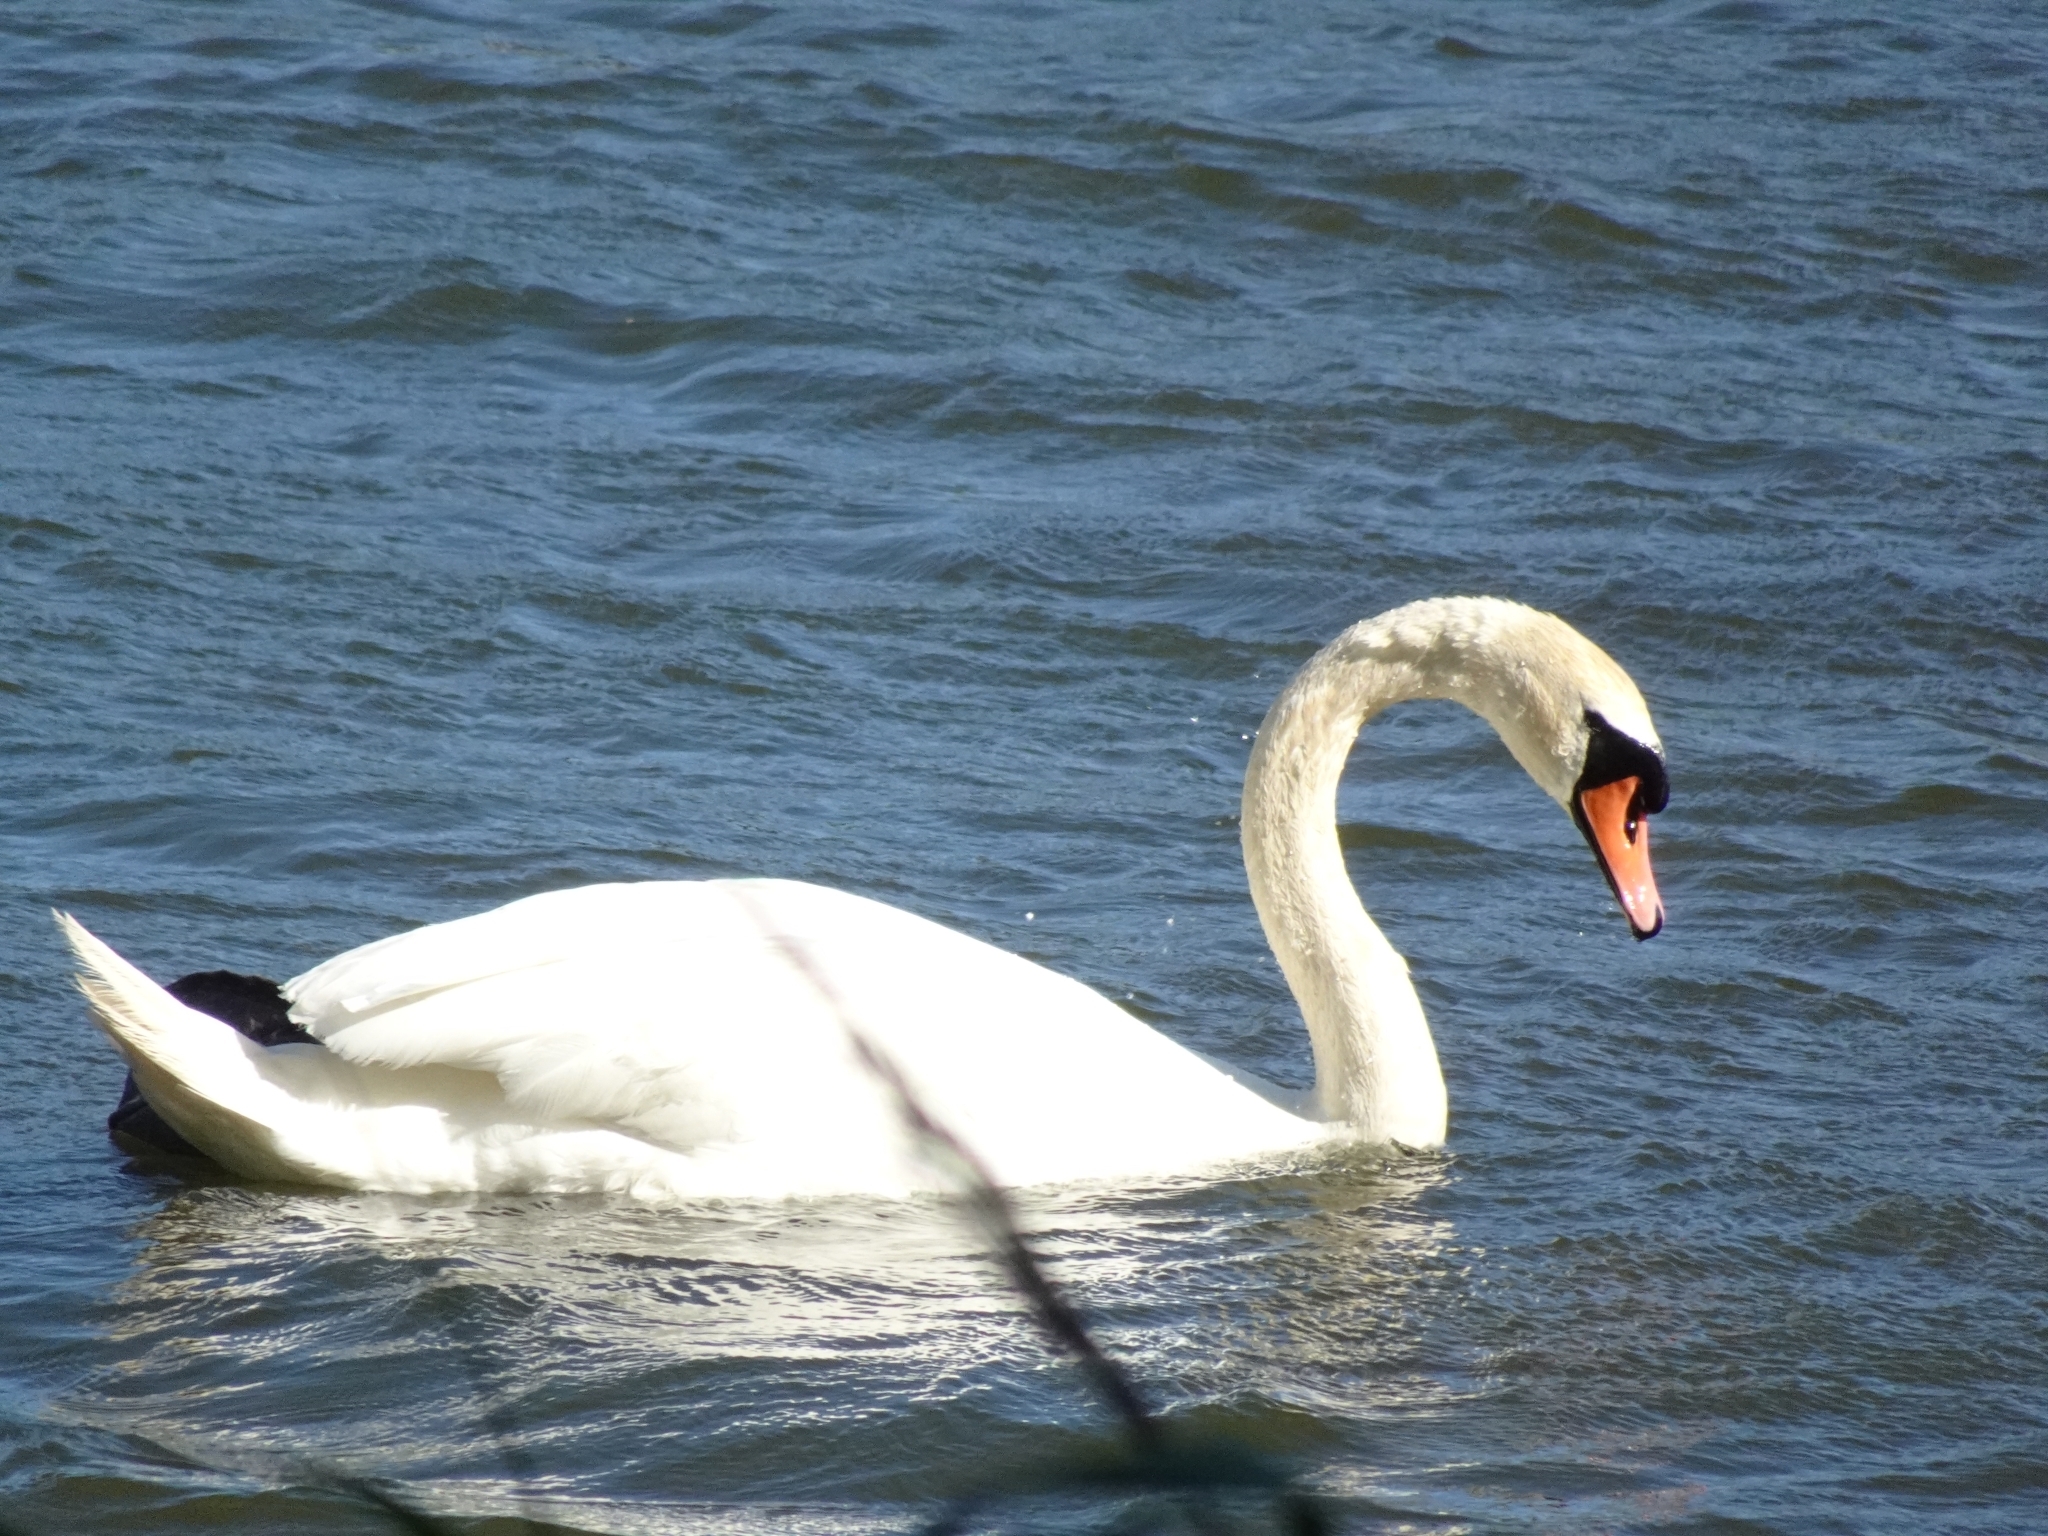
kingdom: Animalia
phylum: Chordata
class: Aves
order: Anseriformes
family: Anatidae
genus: Cygnus
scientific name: Cygnus olor
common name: Mute swan
